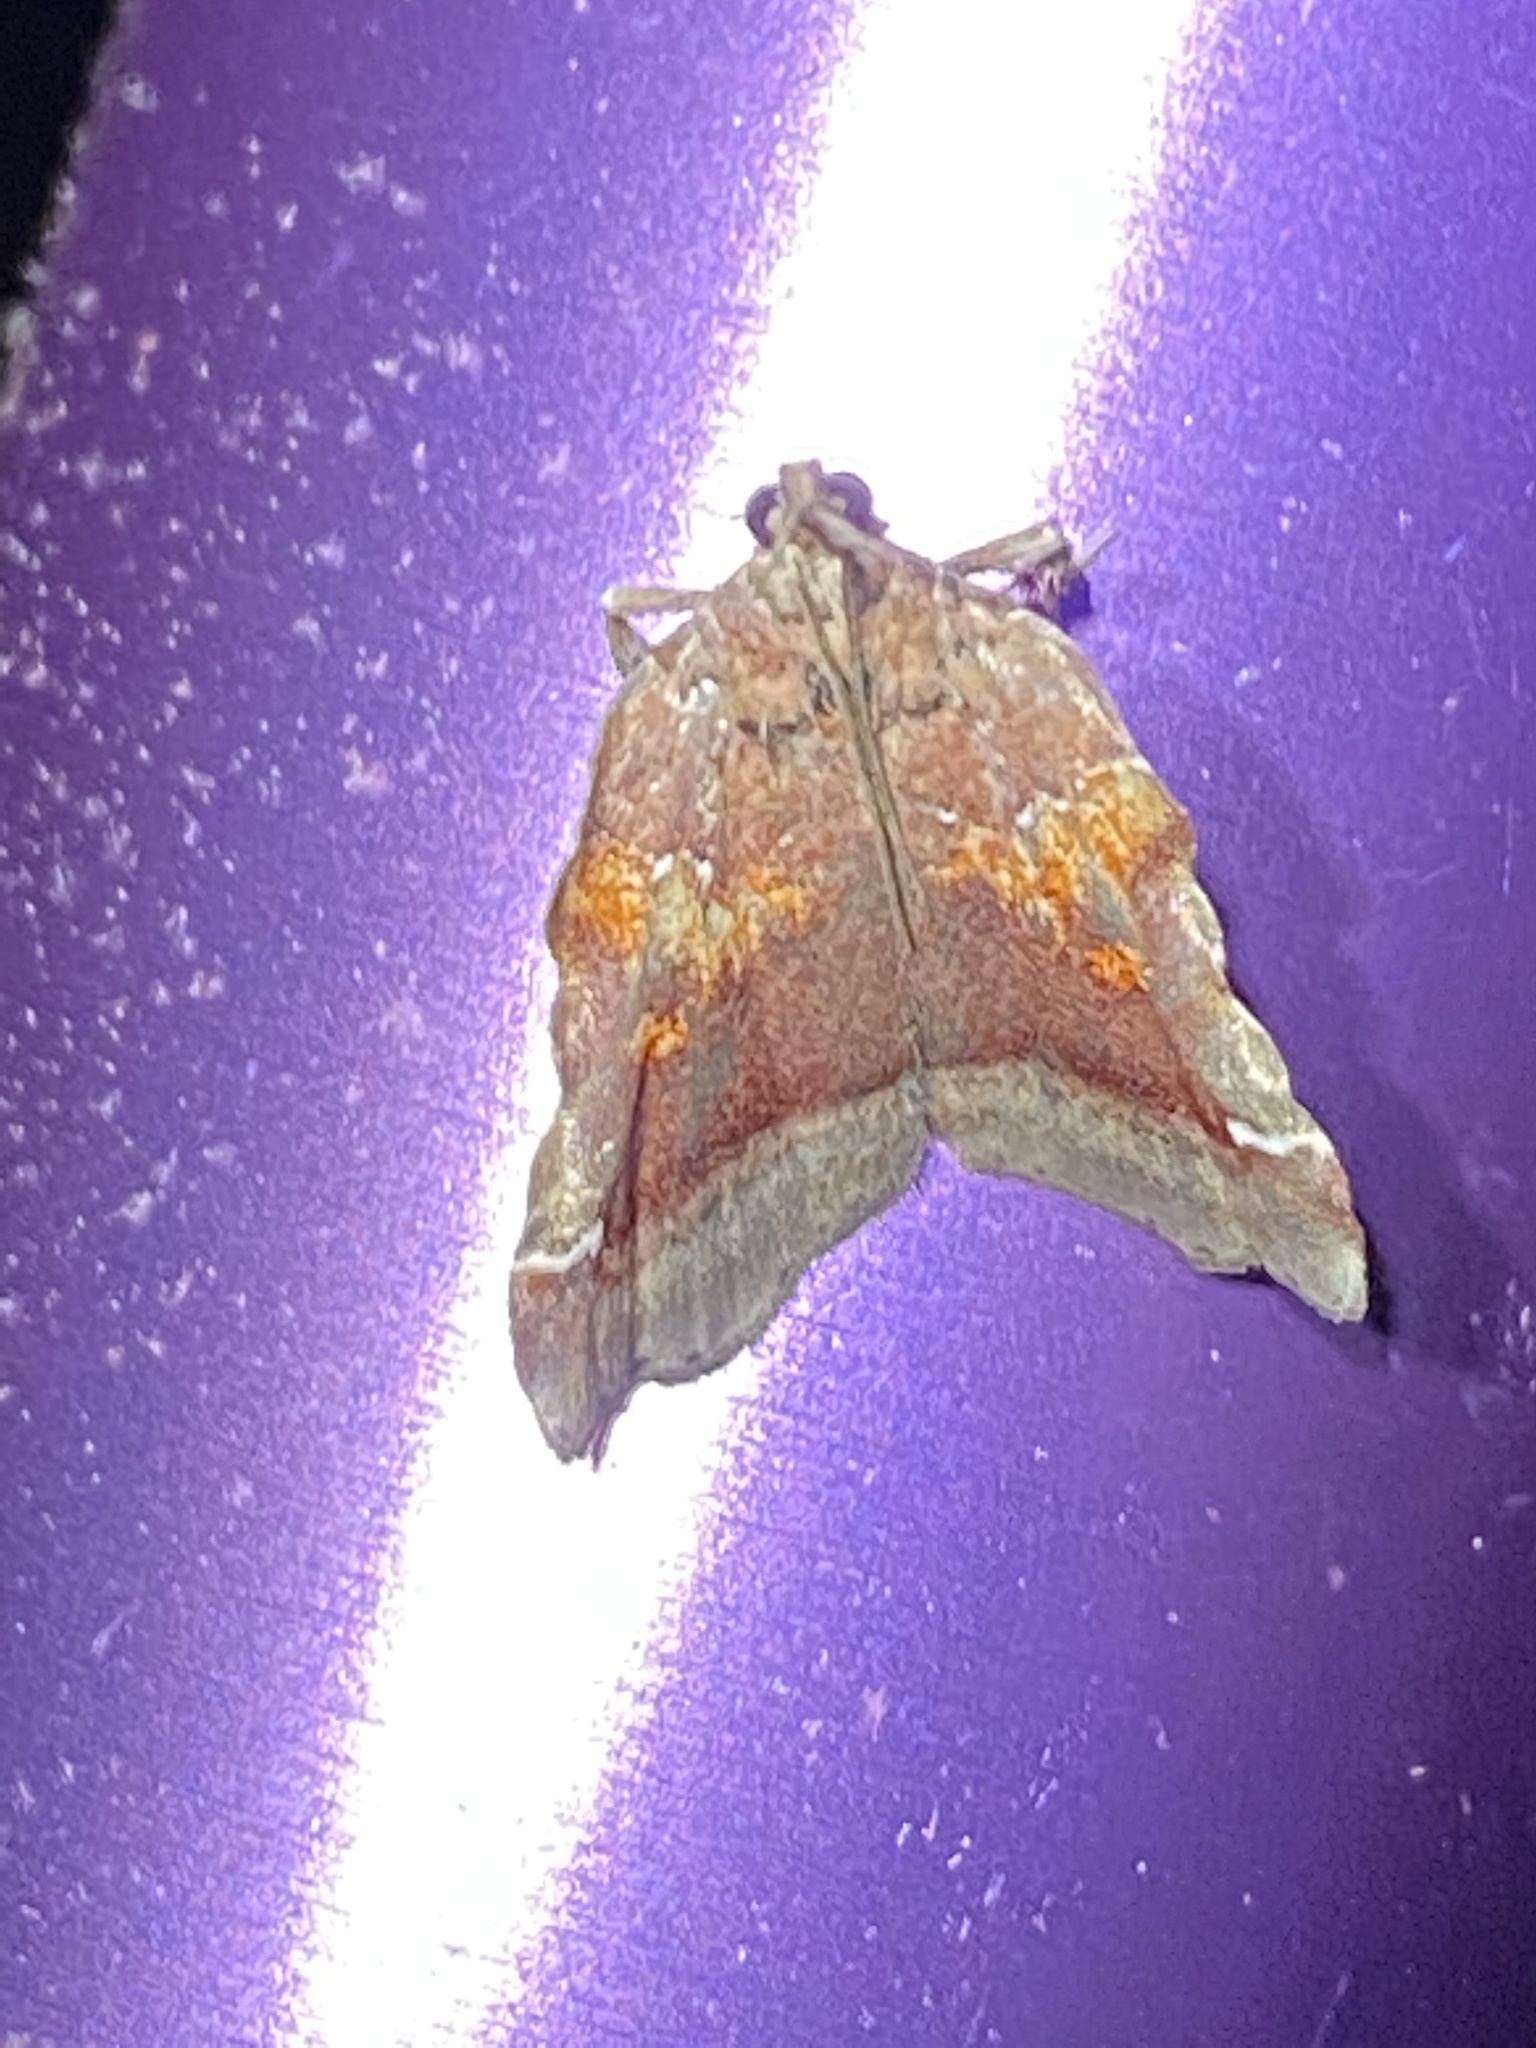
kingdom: Animalia
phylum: Arthropoda
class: Insecta
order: Lepidoptera
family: Pyralidae
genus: Clydonopteron
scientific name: Clydonopteron sacculana
